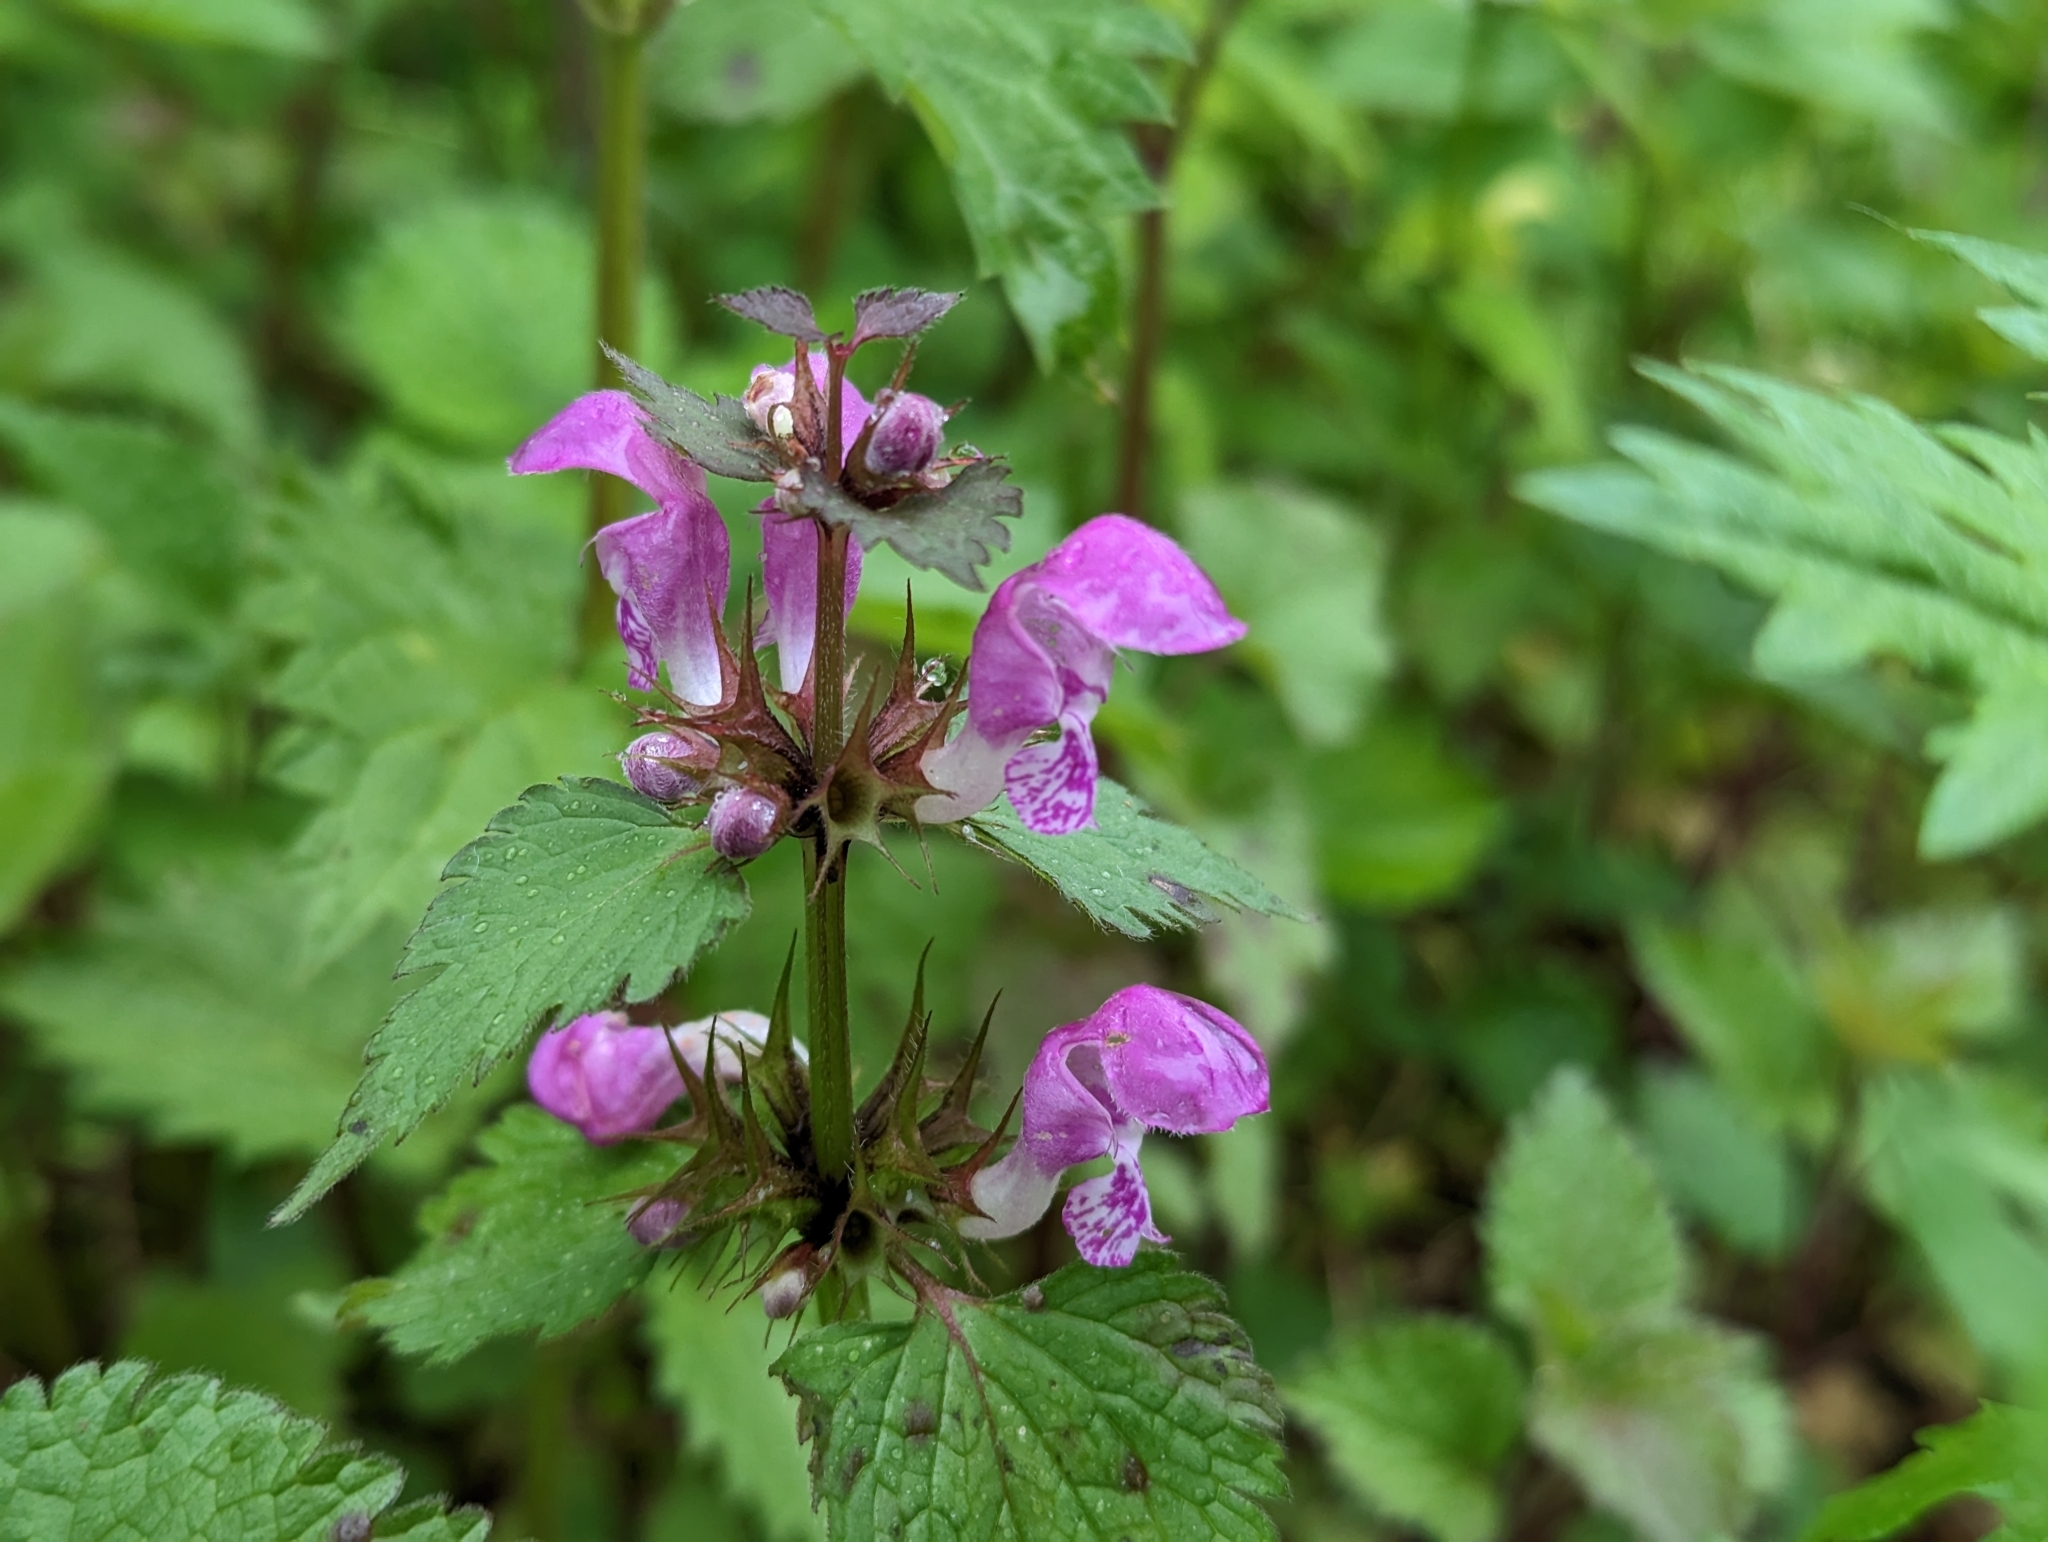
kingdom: Plantae
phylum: Tracheophyta
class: Magnoliopsida
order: Lamiales
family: Lamiaceae
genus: Lamium
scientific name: Lamium maculatum
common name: Spotted dead-nettle
